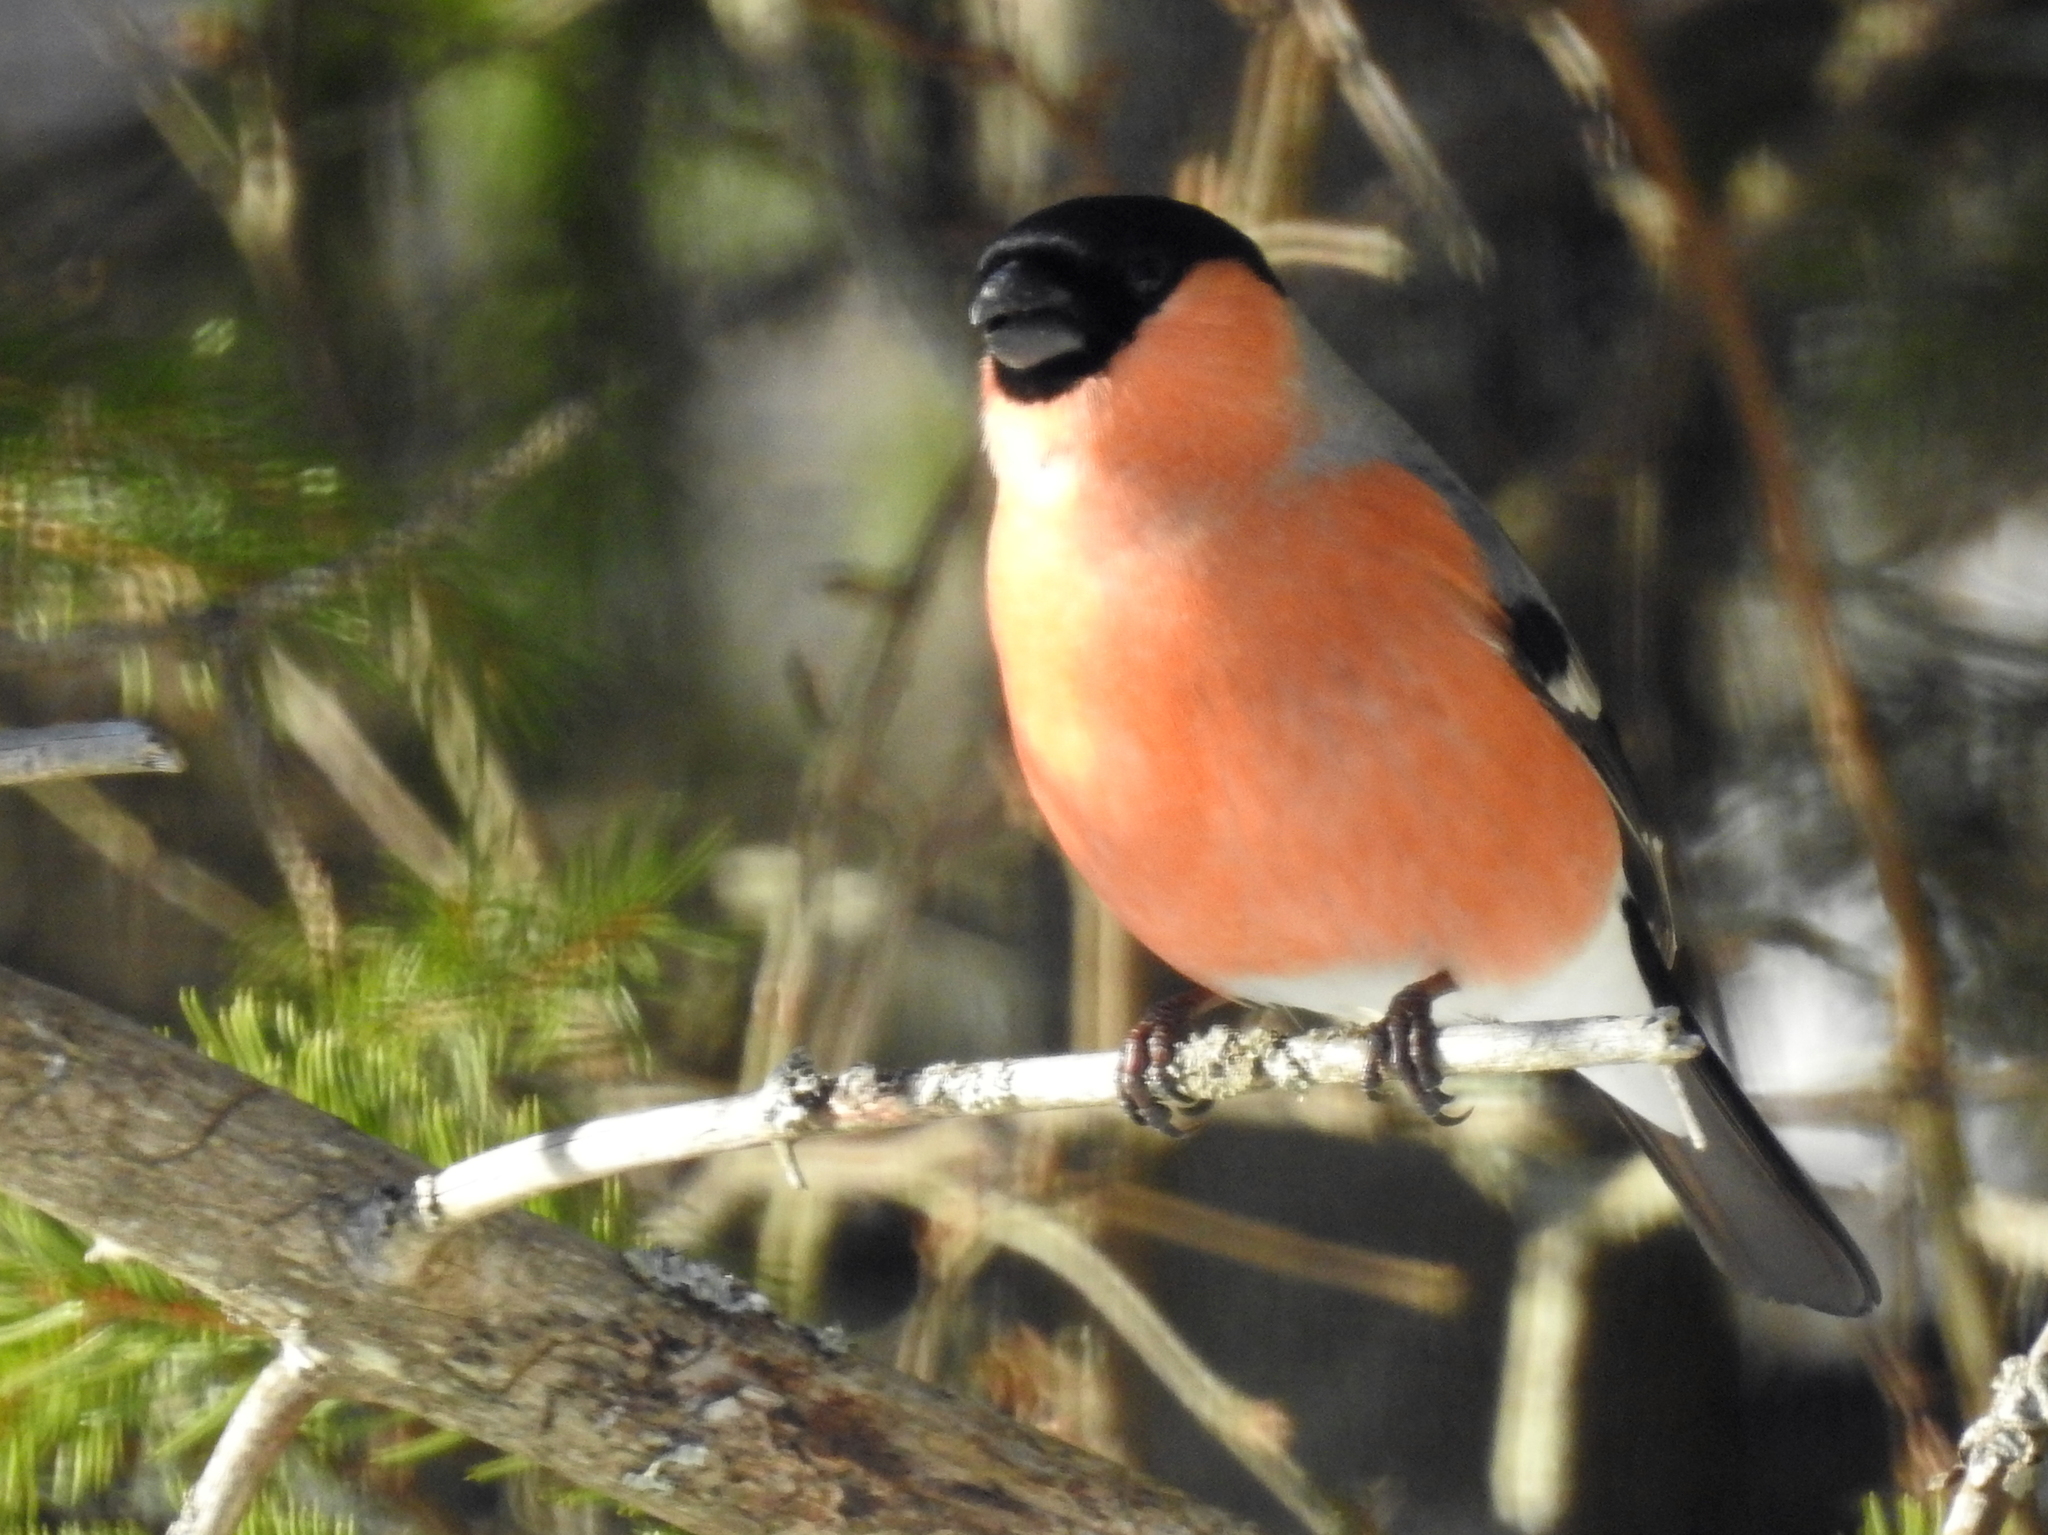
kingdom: Animalia
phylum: Chordata
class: Aves
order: Passeriformes
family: Fringillidae
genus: Pyrrhula
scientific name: Pyrrhula pyrrhula
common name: Eurasian bullfinch
